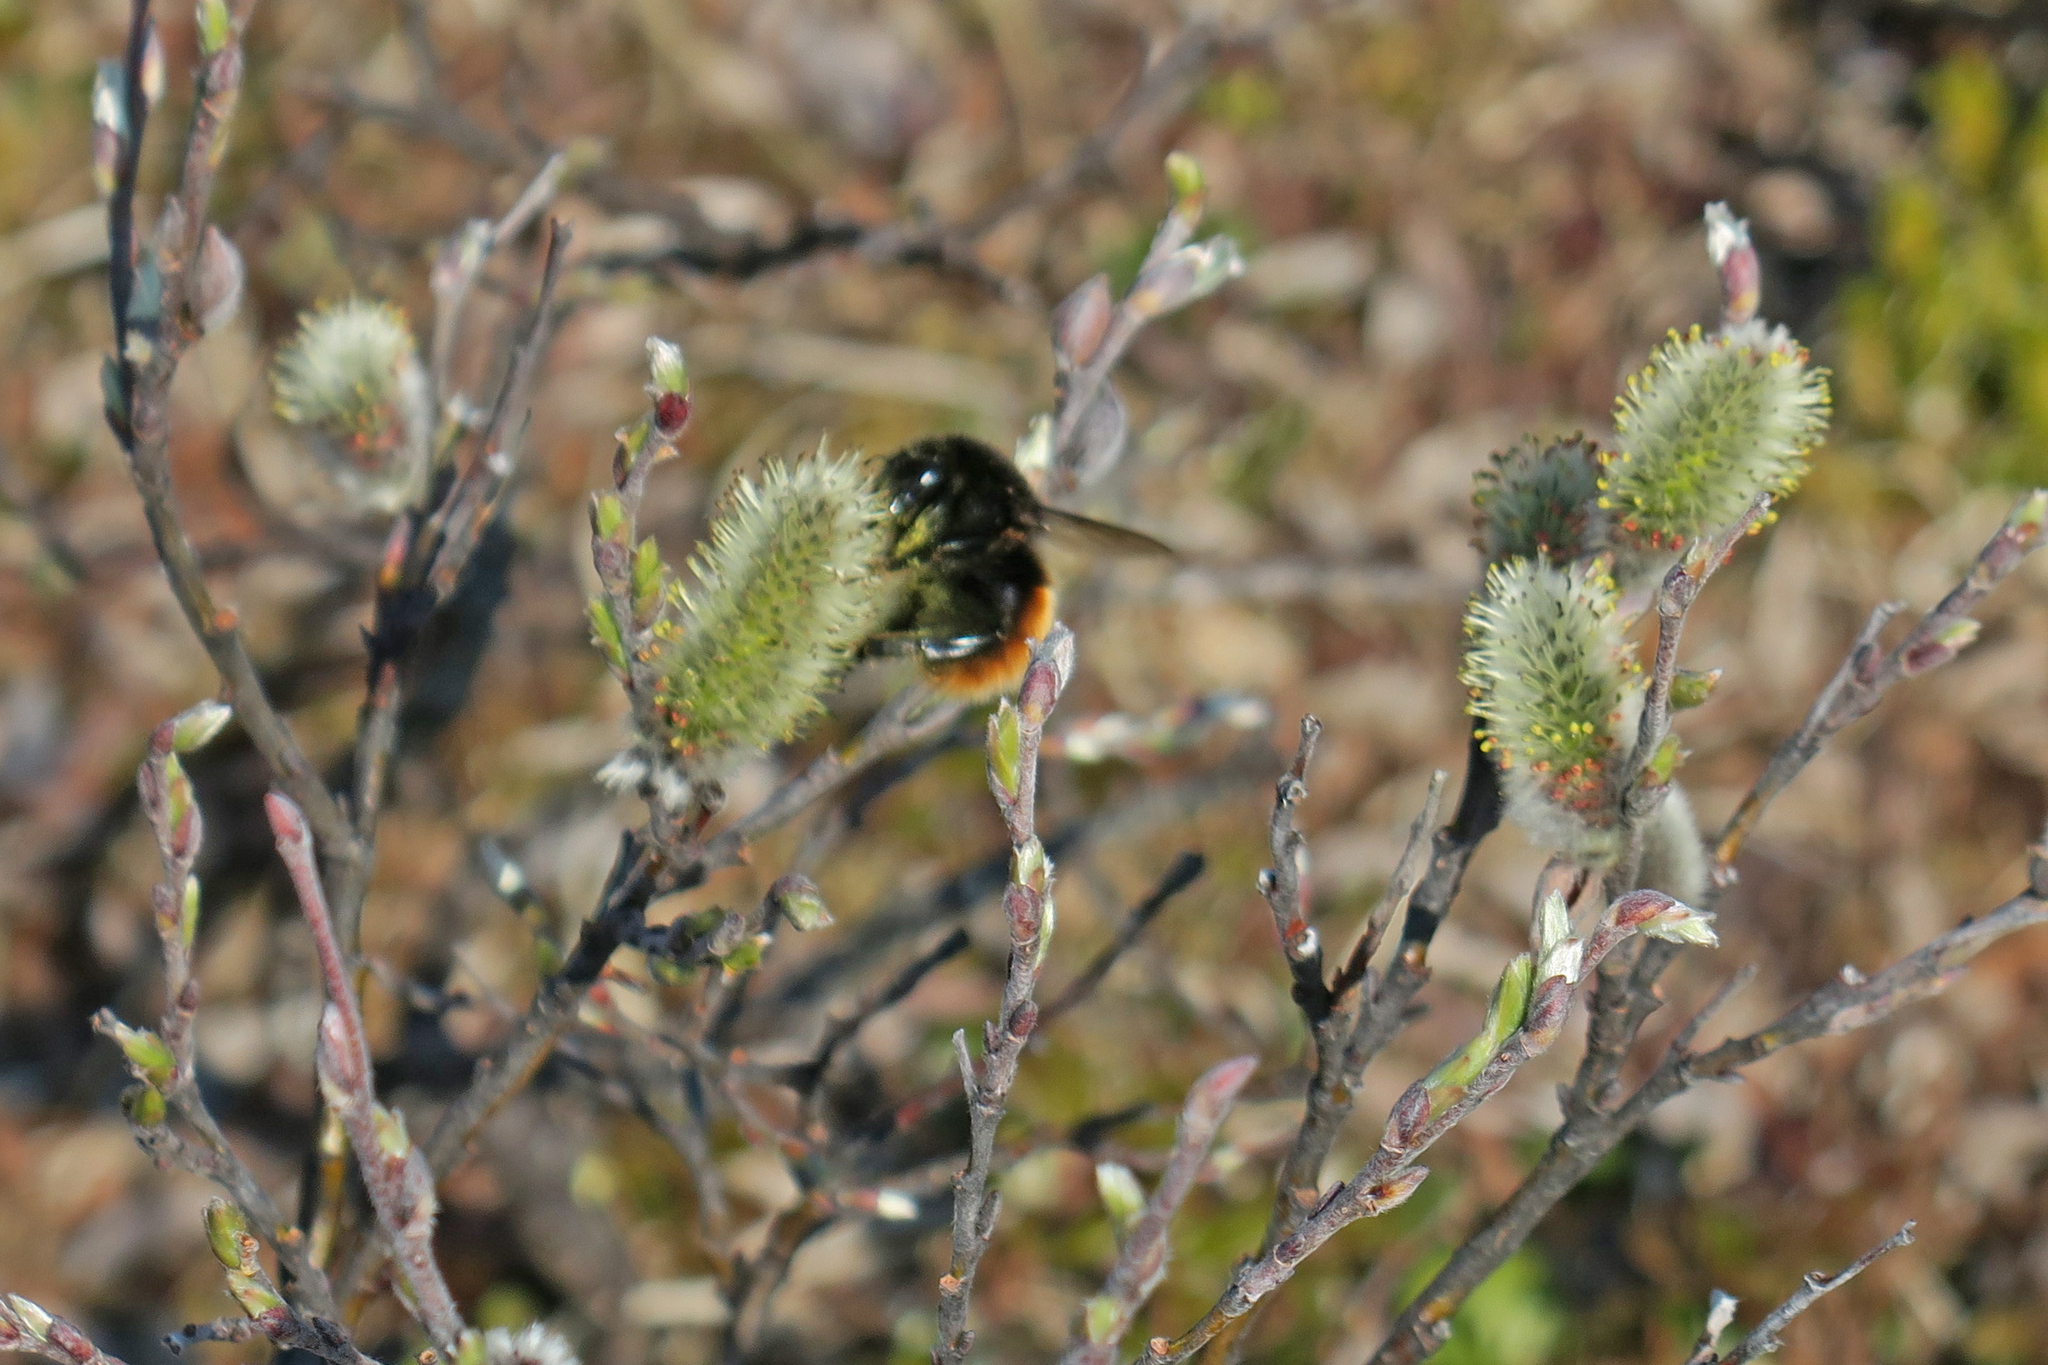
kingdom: Animalia
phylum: Arthropoda
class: Insecta
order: Hymenoptera
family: Apidae
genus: Bombus
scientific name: Bombus pyrrhopygus
